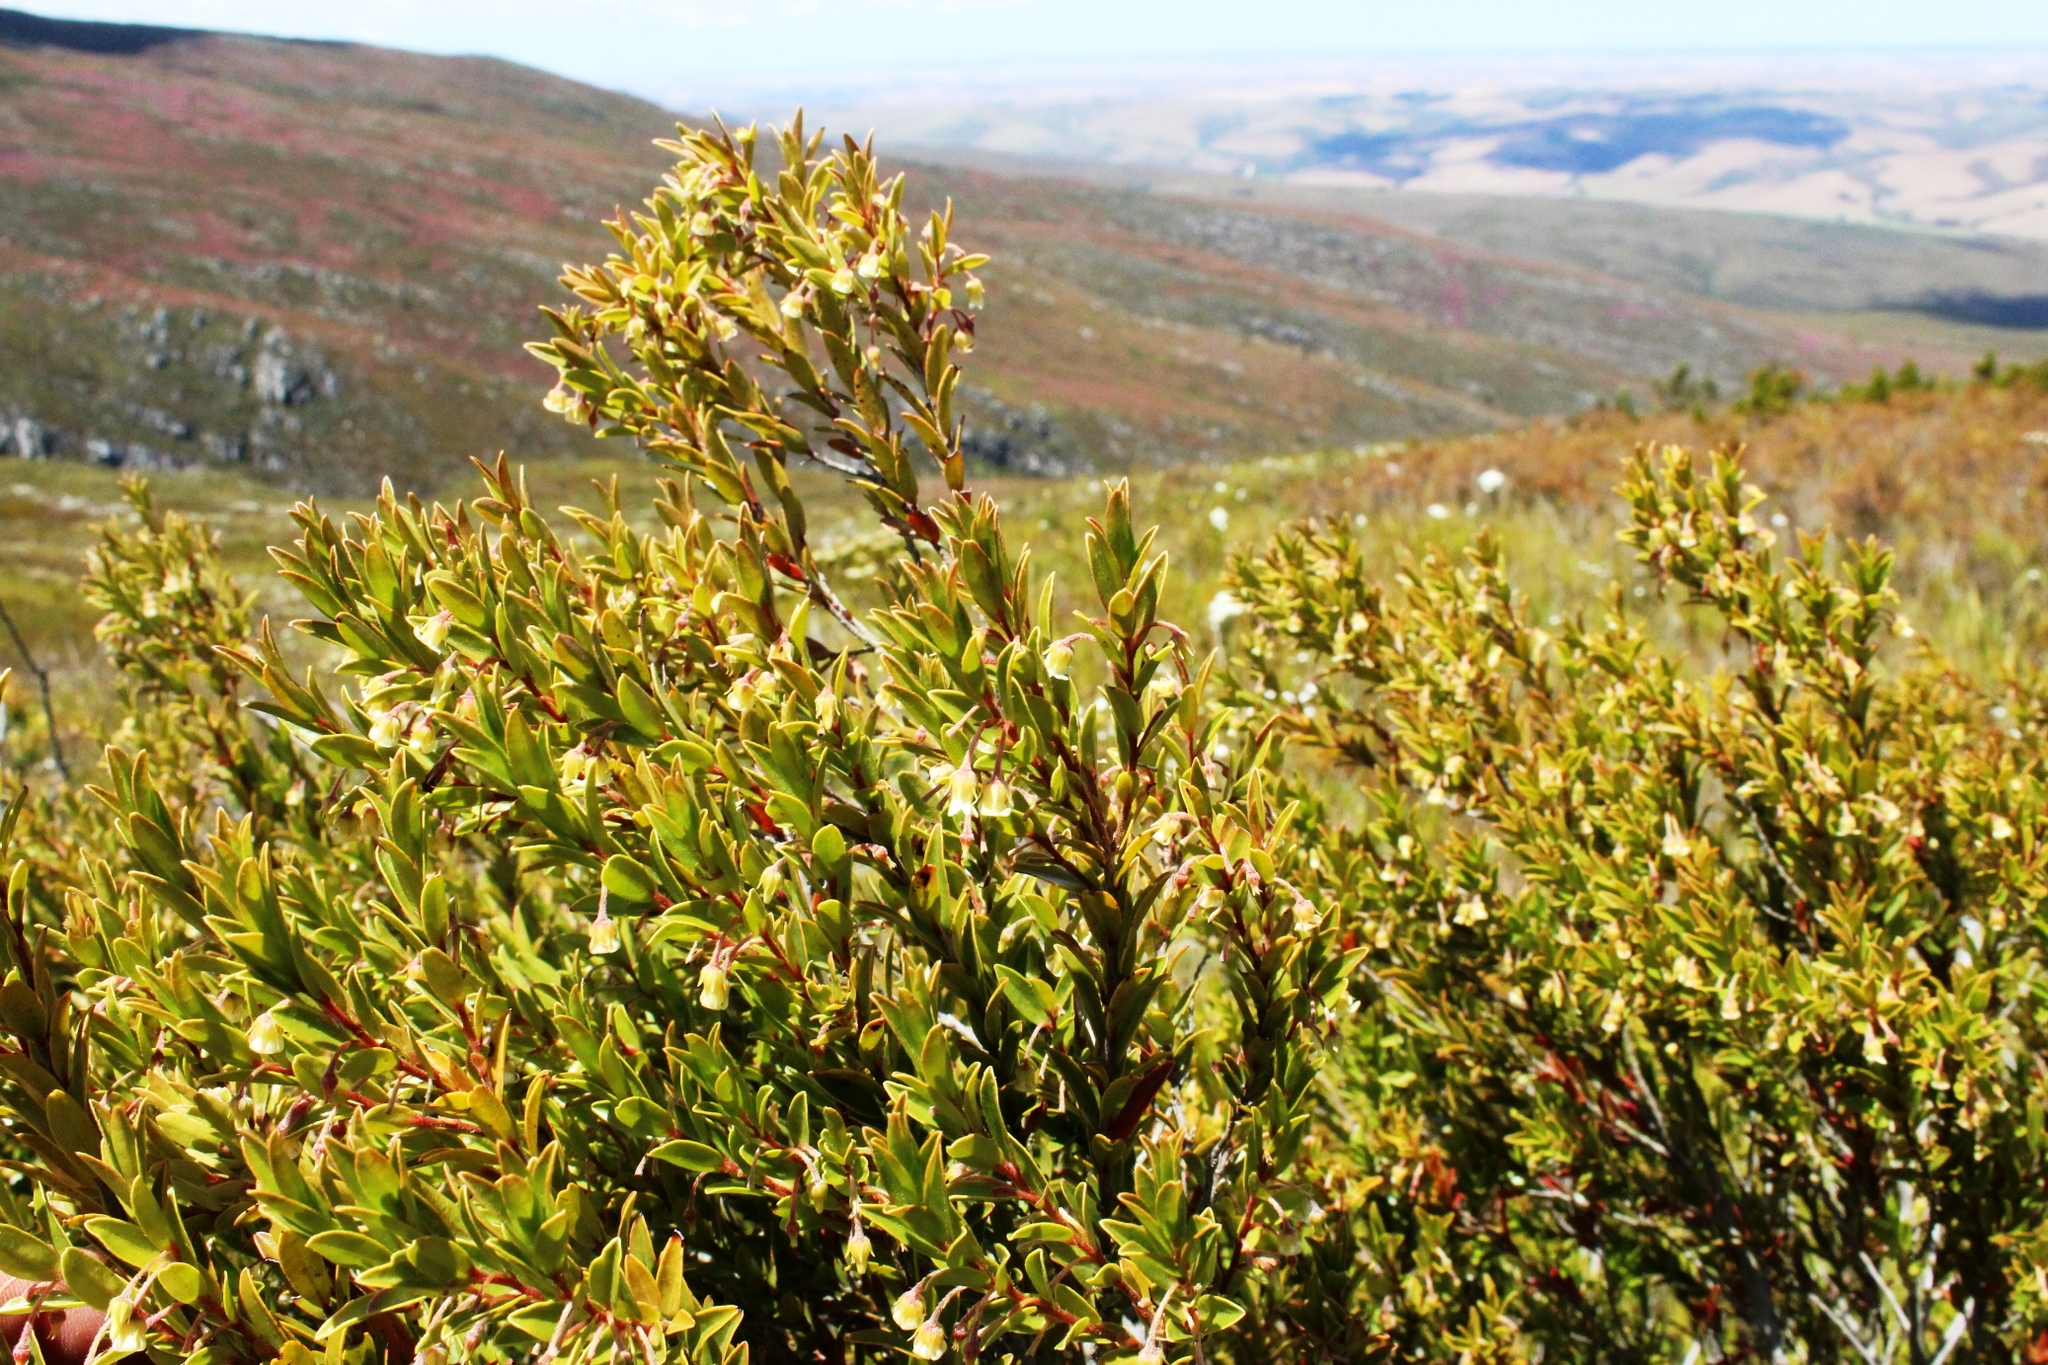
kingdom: Plantae
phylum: Tracheophyta
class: Magnoliopsida
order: Ericales
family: Ebenaceae
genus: Diospyros
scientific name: Diospyros glabra
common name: Fynbos star apple
